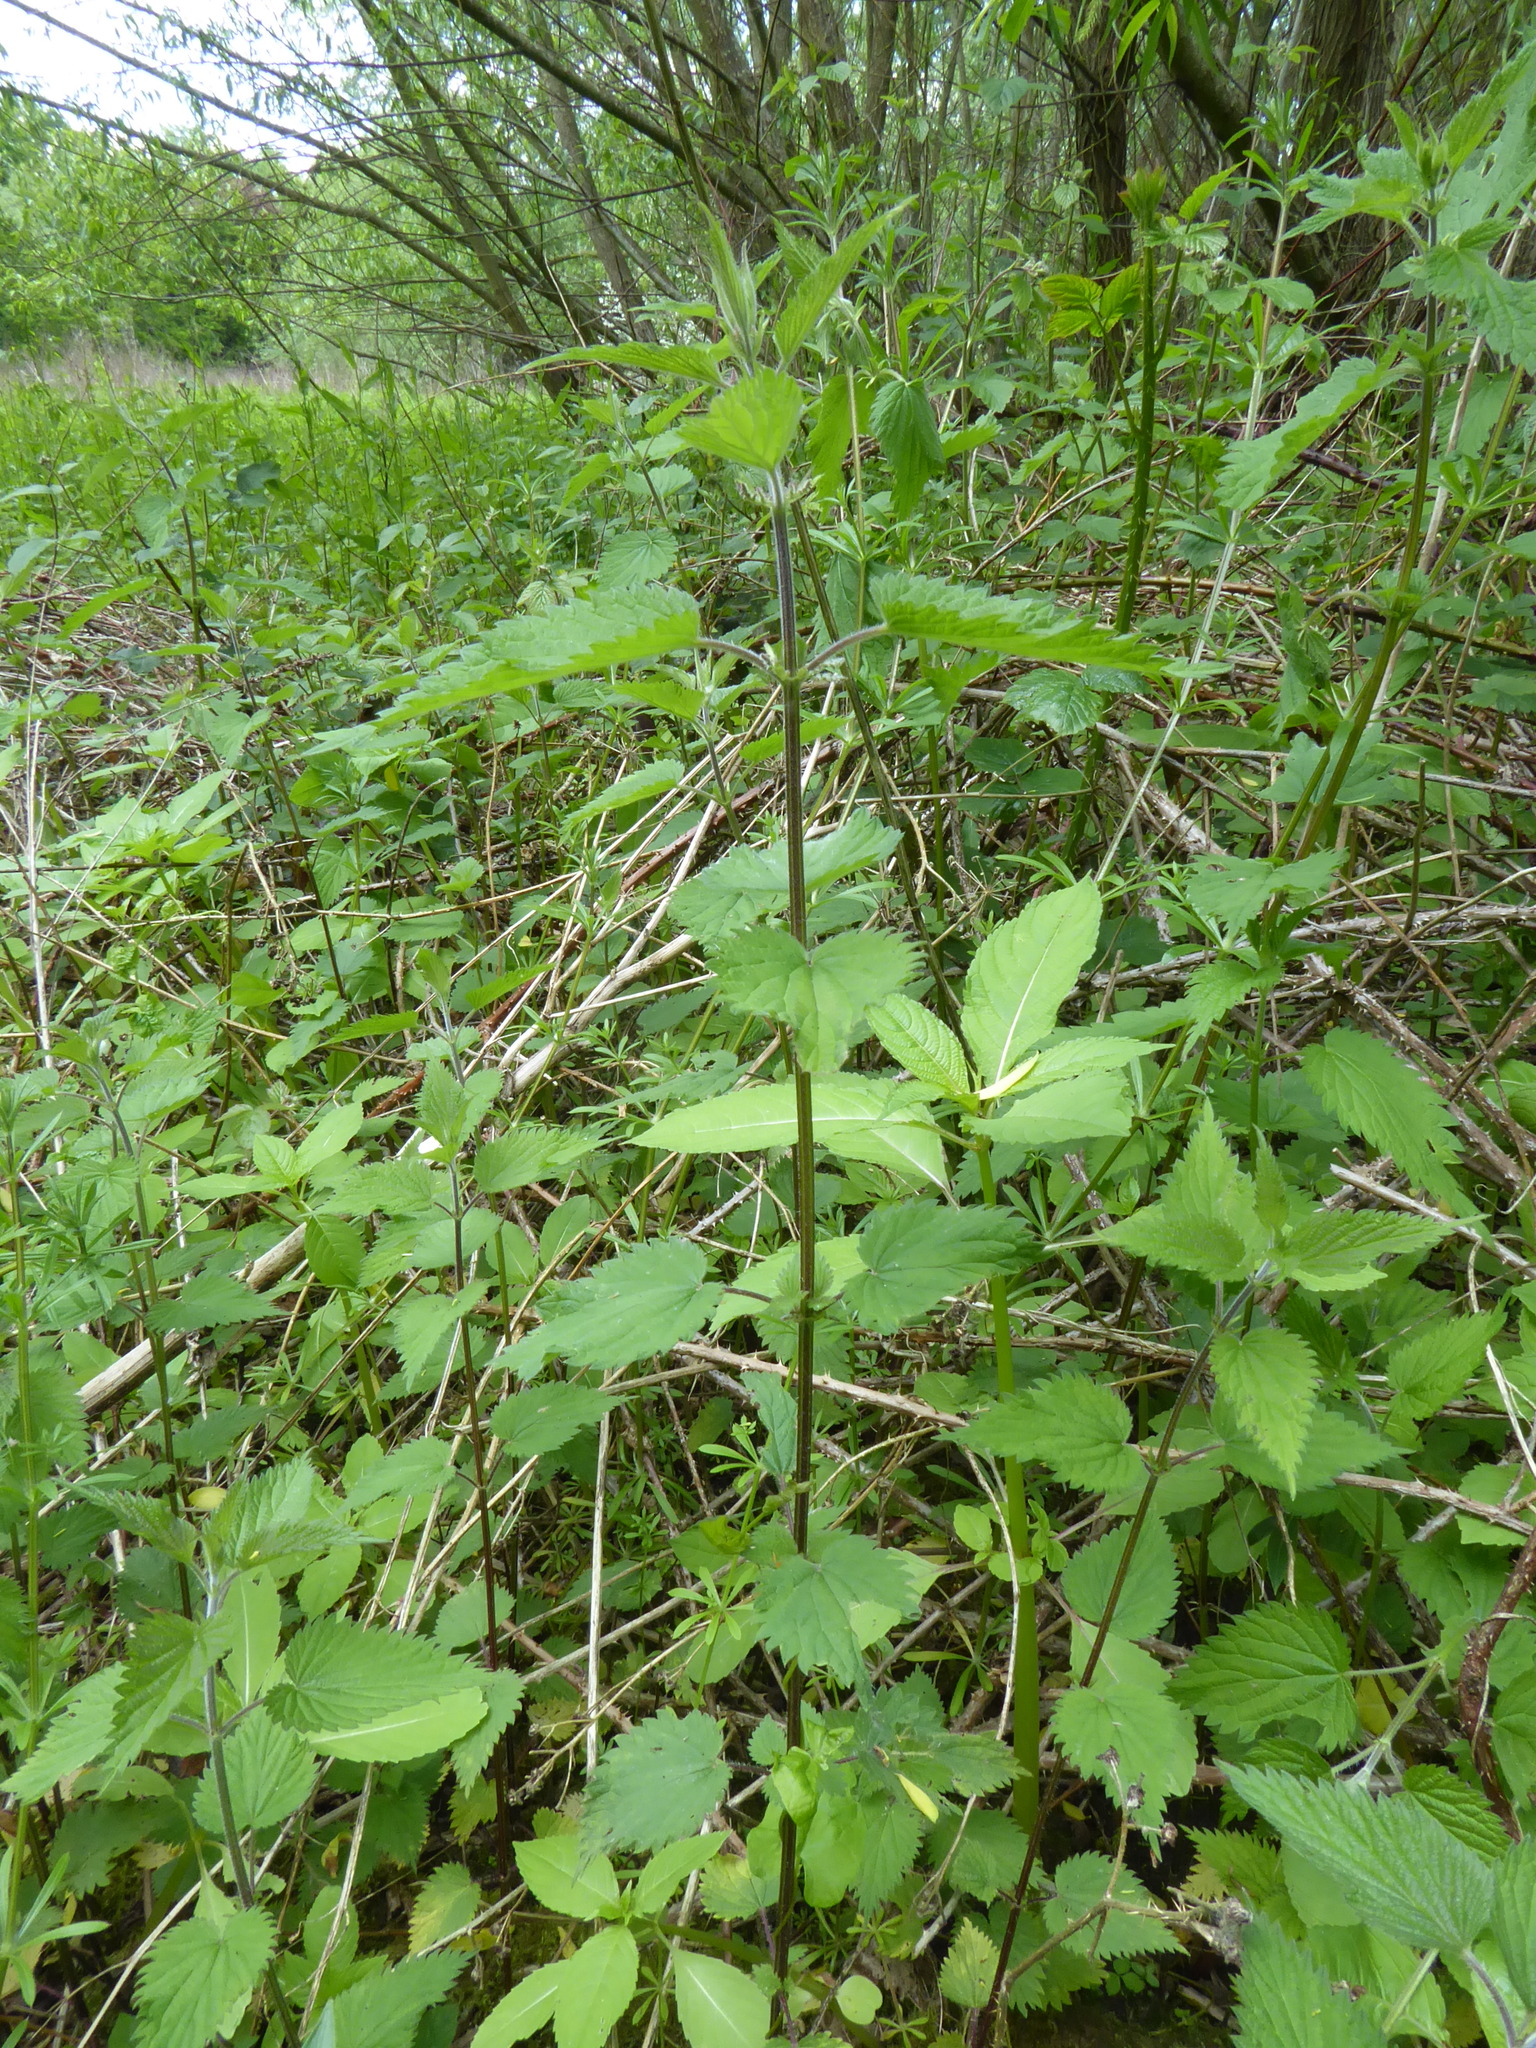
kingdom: Plantae
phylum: Tracheophyta
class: Magnoliopsida
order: Rosales
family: Urticaceae
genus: Urtica
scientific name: Urtica dioica
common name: Common nettle
